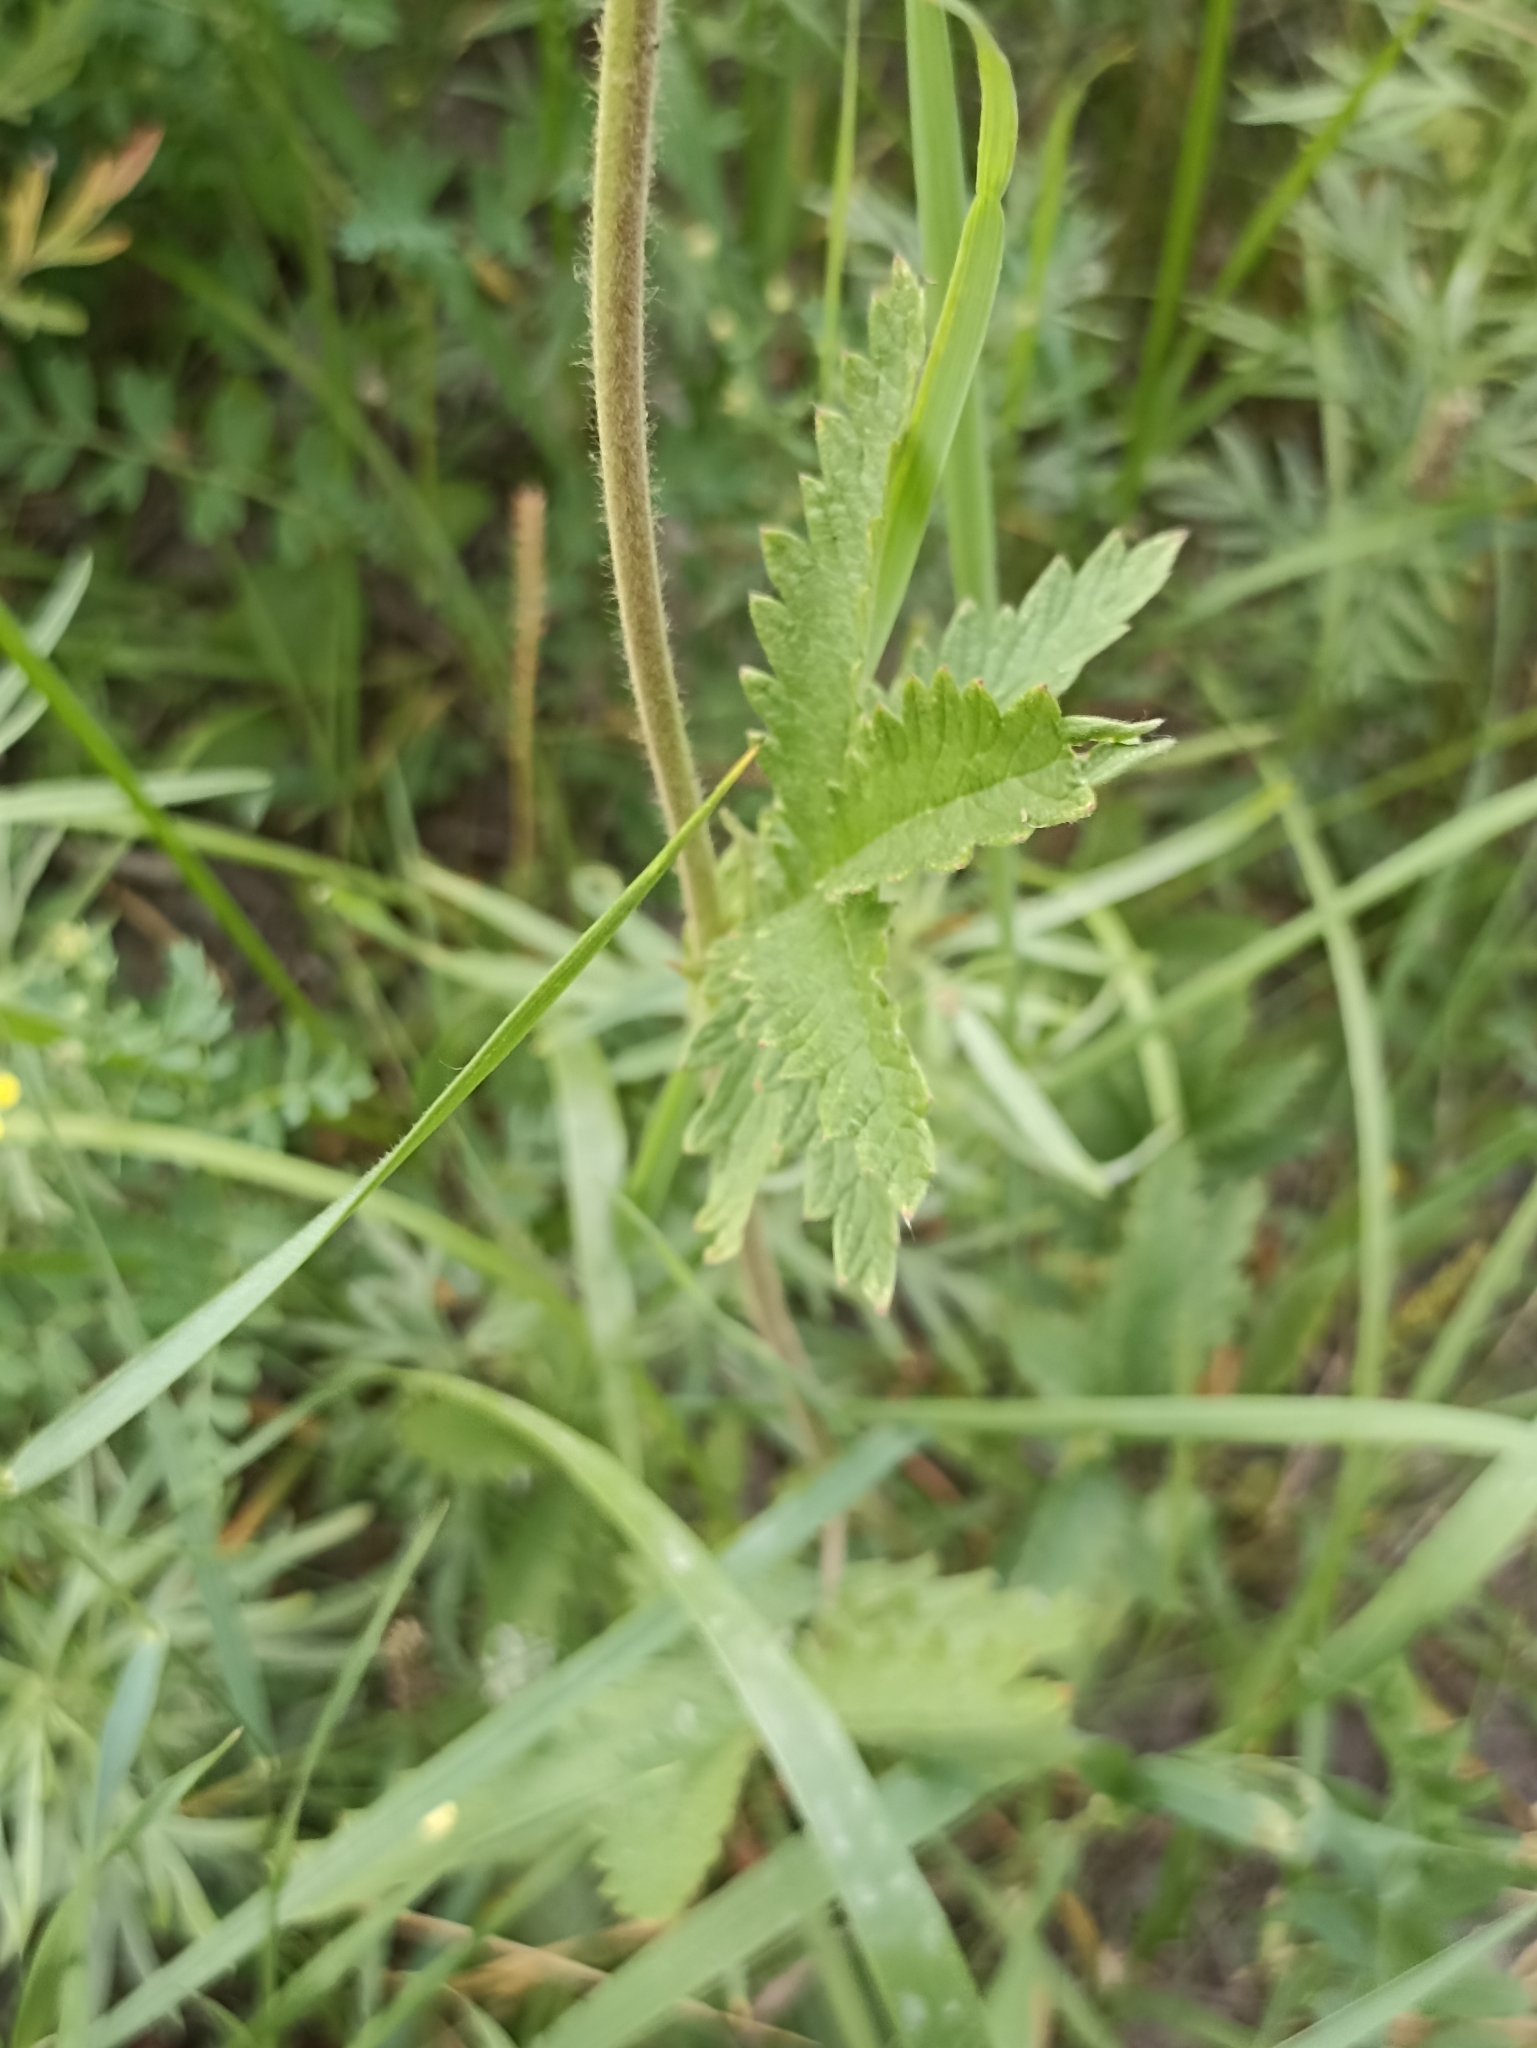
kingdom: Plantae
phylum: Tracheophyta
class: Magnoliopsida
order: Rosales
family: Rosaceae
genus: Potentilla
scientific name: Potentilla longifolia
